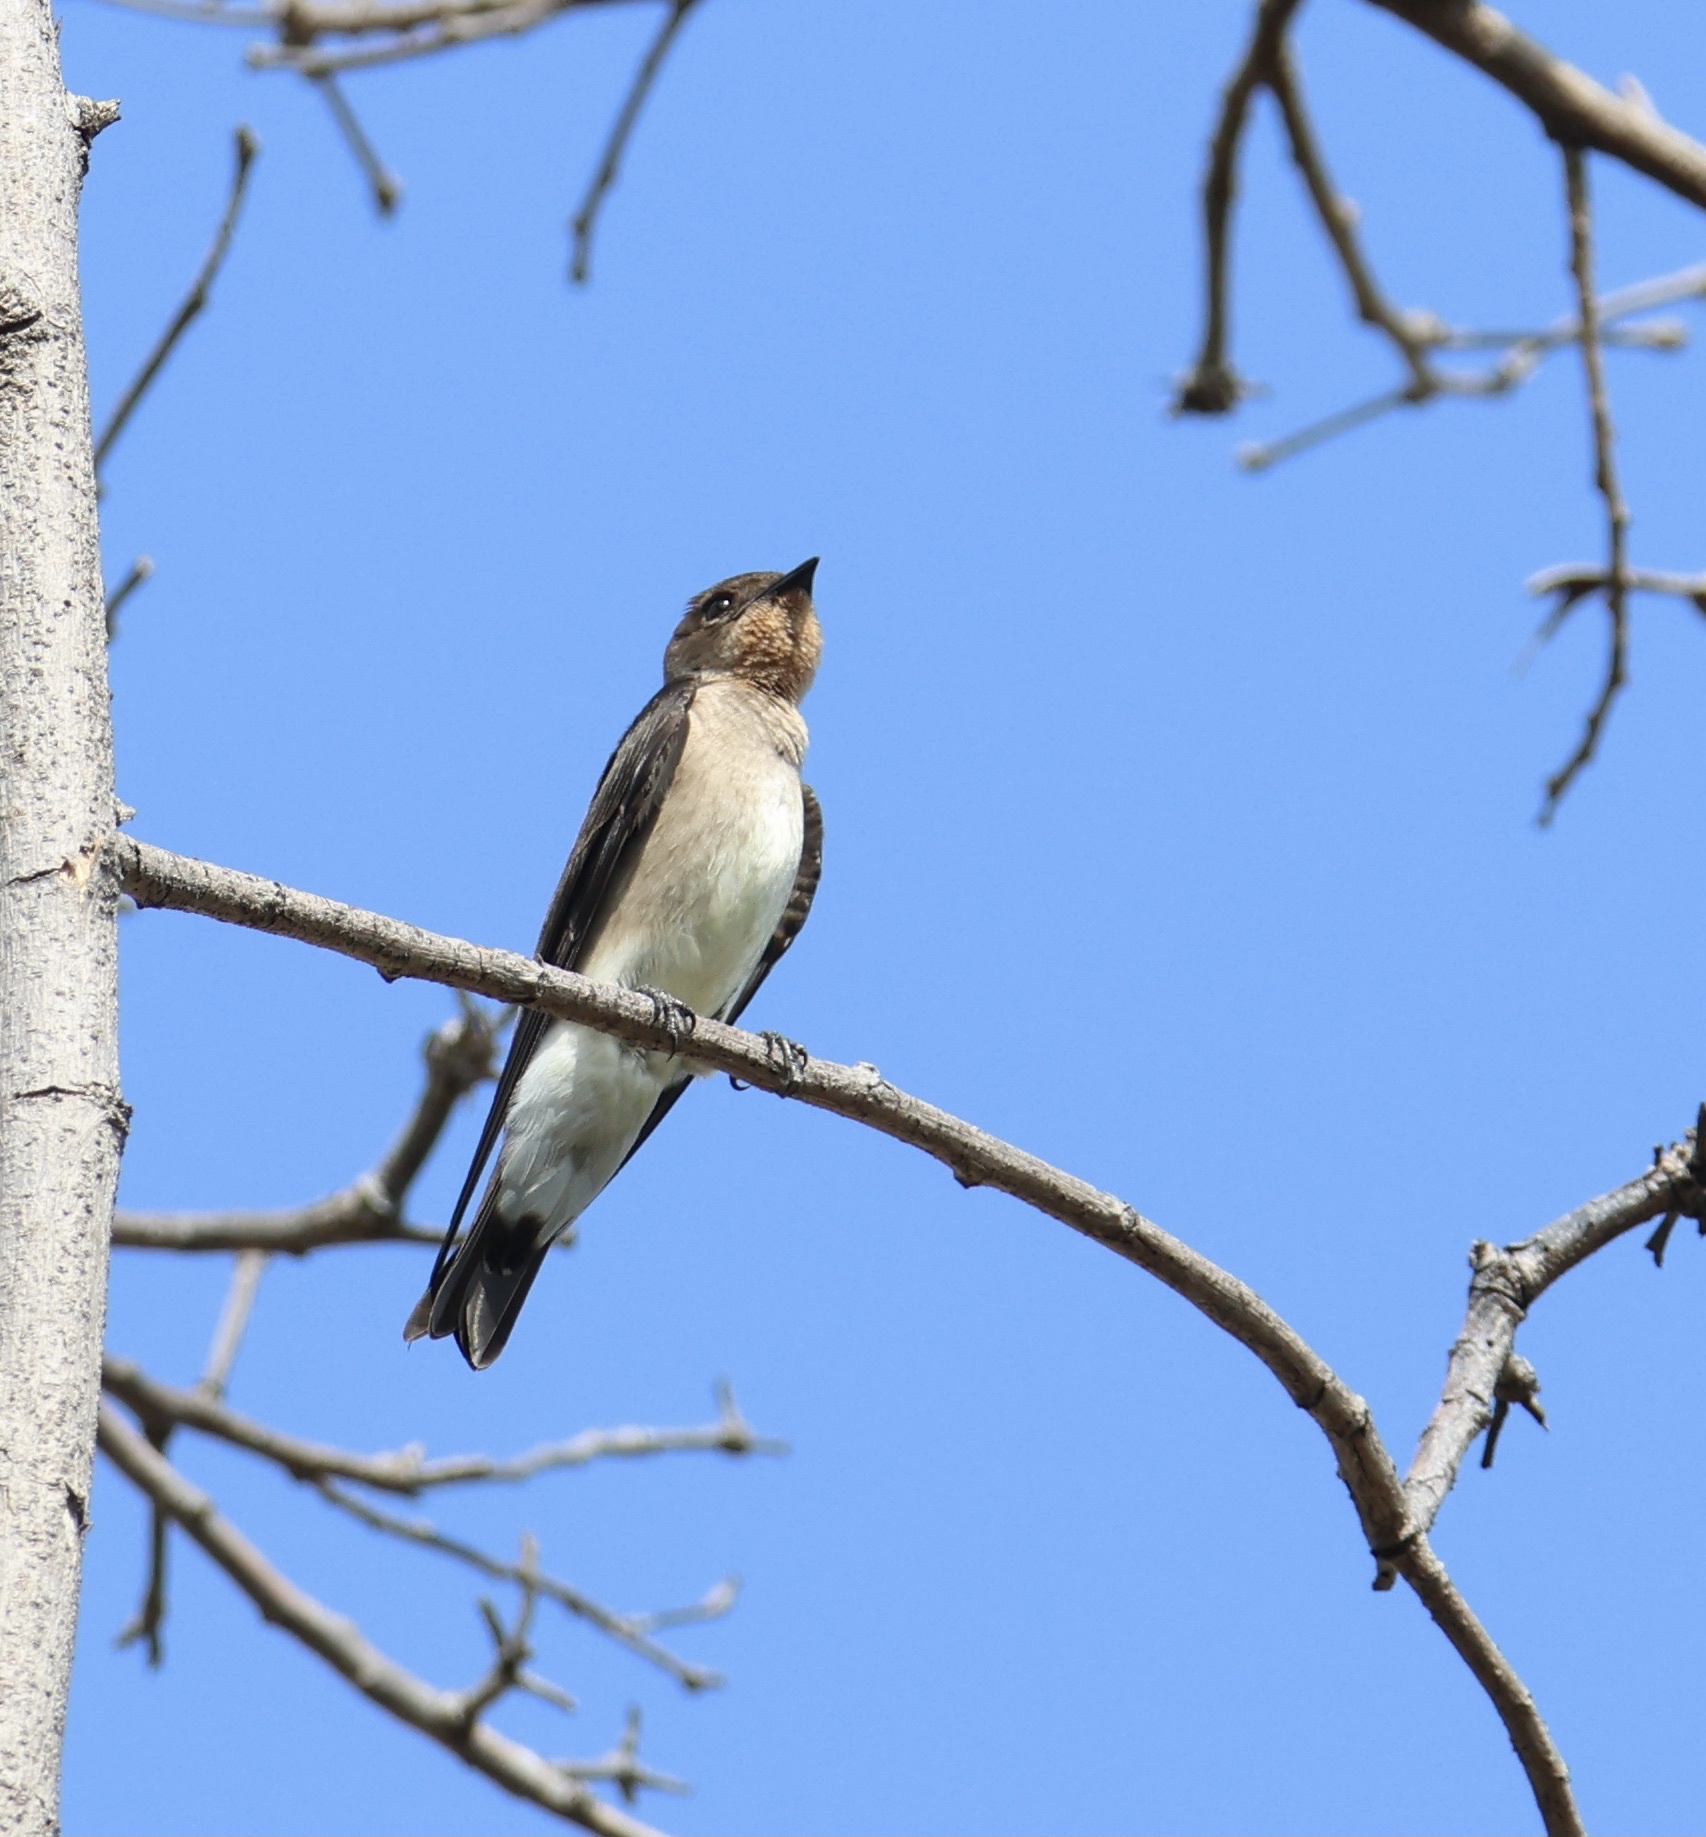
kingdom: Animalia
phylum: Chordata
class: Aves
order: Passeriformes
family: Hirundinidae
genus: Stelgidopteryx
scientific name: Stelgidopteryx ruficollis
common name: Southern rough-winged swallow
